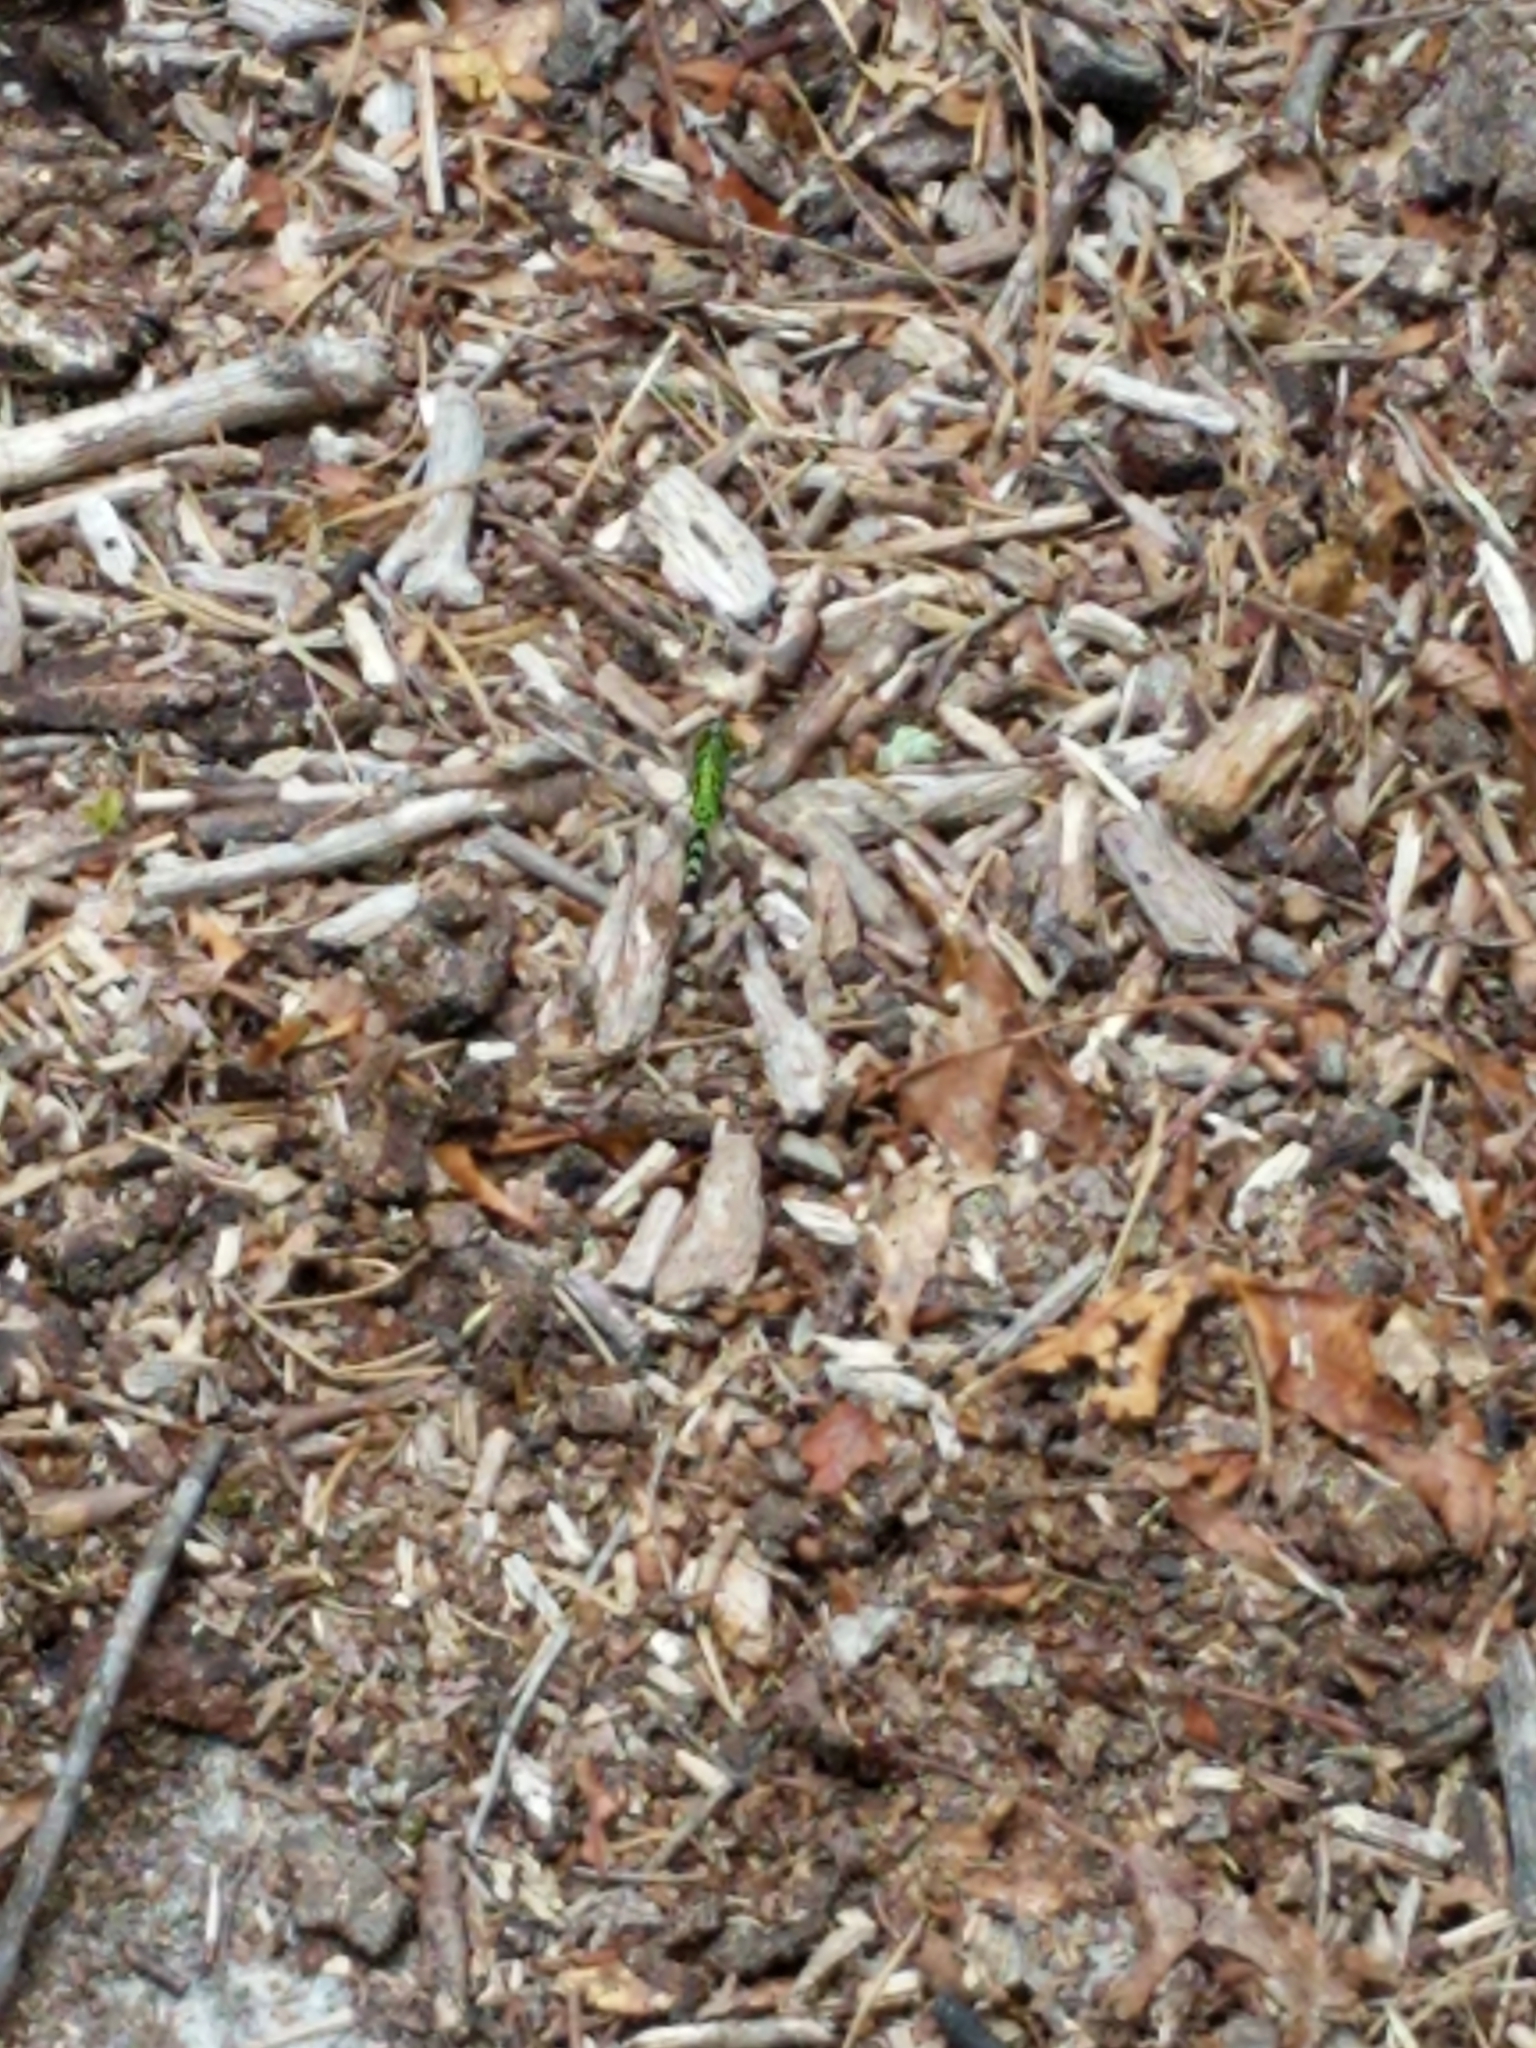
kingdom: Animalia
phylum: Arthropoda
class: Insecta
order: Odonata
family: Libellulidae
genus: Erythemis
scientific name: Erythemis simplicicollis
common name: Eastern pondhawk
